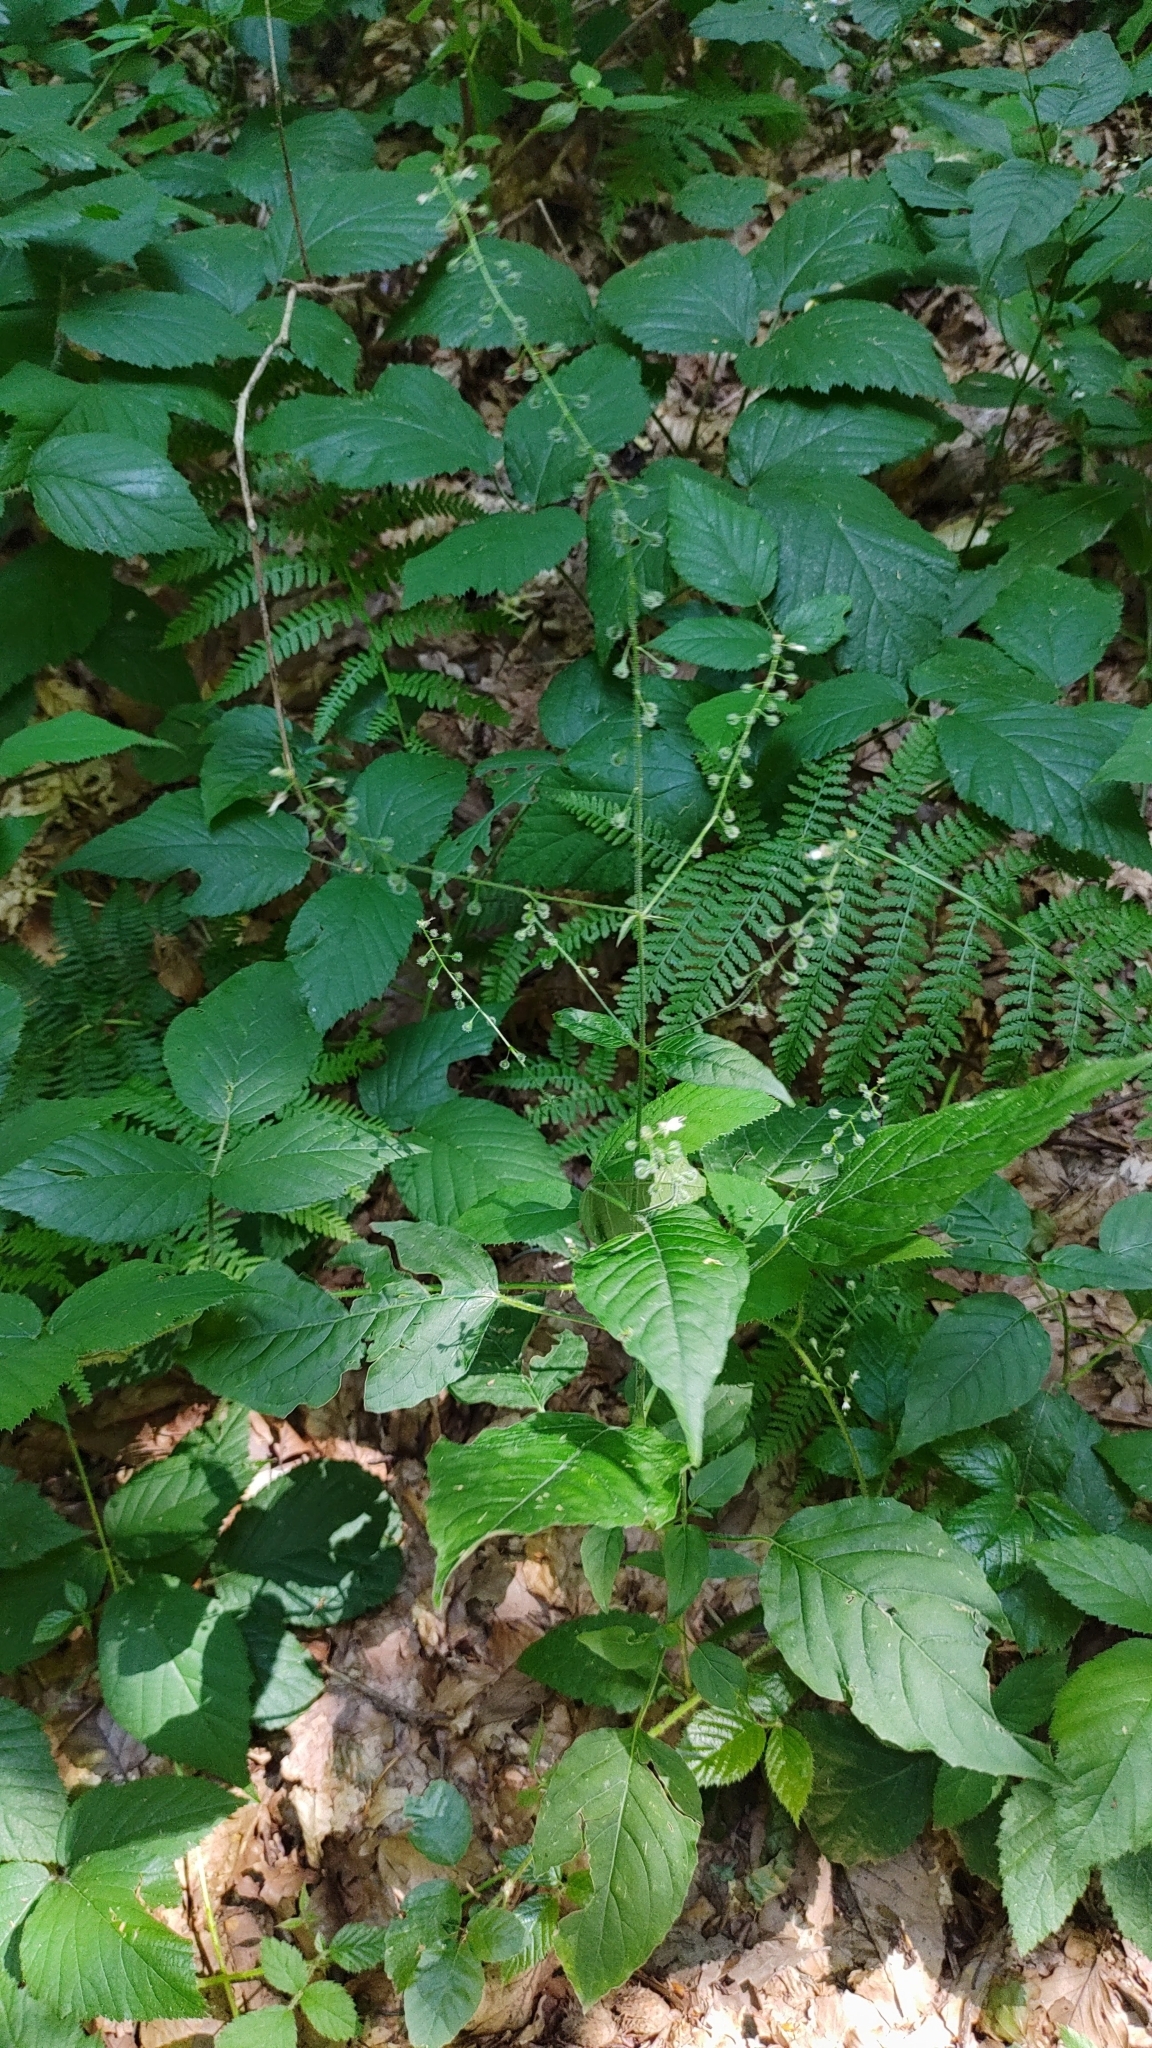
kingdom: Plantae
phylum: Tracheophyta
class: Magnoliopsida
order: Myrtales
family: Onagraceae
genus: Circaea
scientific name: Circaea lutetiana
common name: Enchanter's-nightshade
